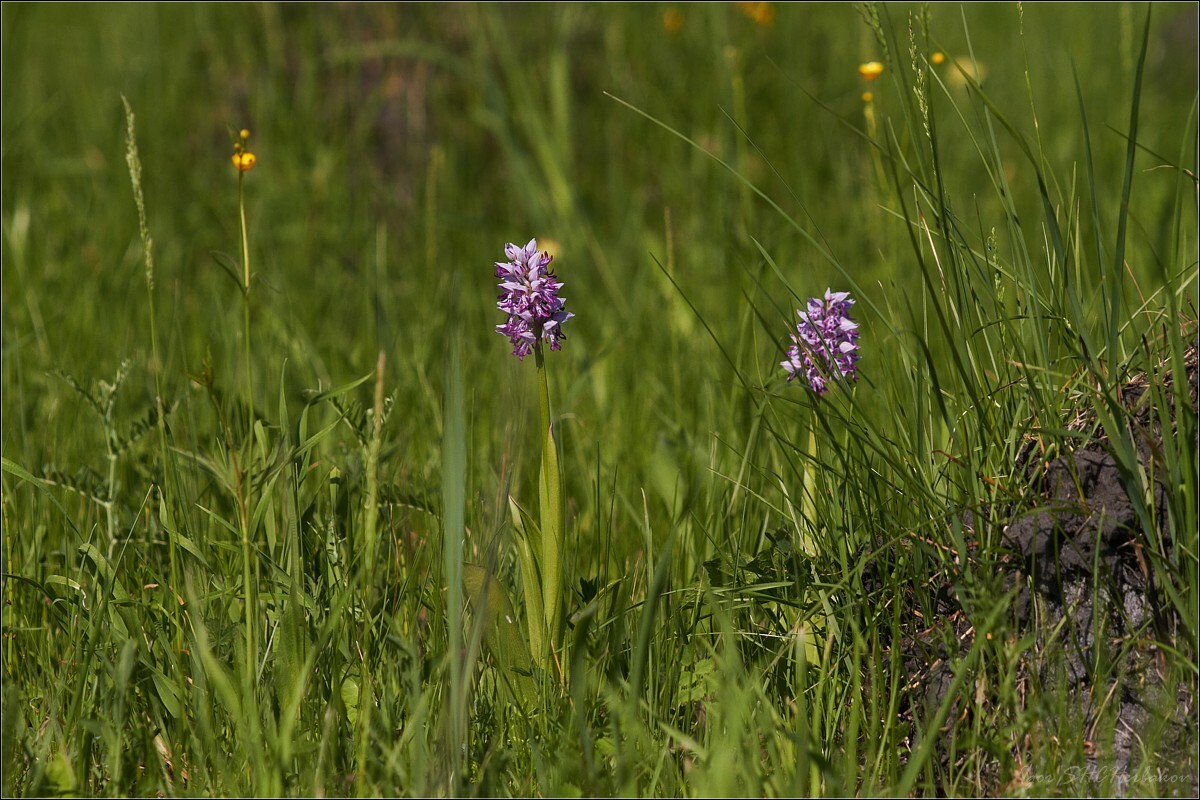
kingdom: Plantae
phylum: Tracheophyta
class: Liliopsida
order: Asparagales
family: Orchidaceae
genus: Orchis
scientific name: Orchis militaris
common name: Military orchid
